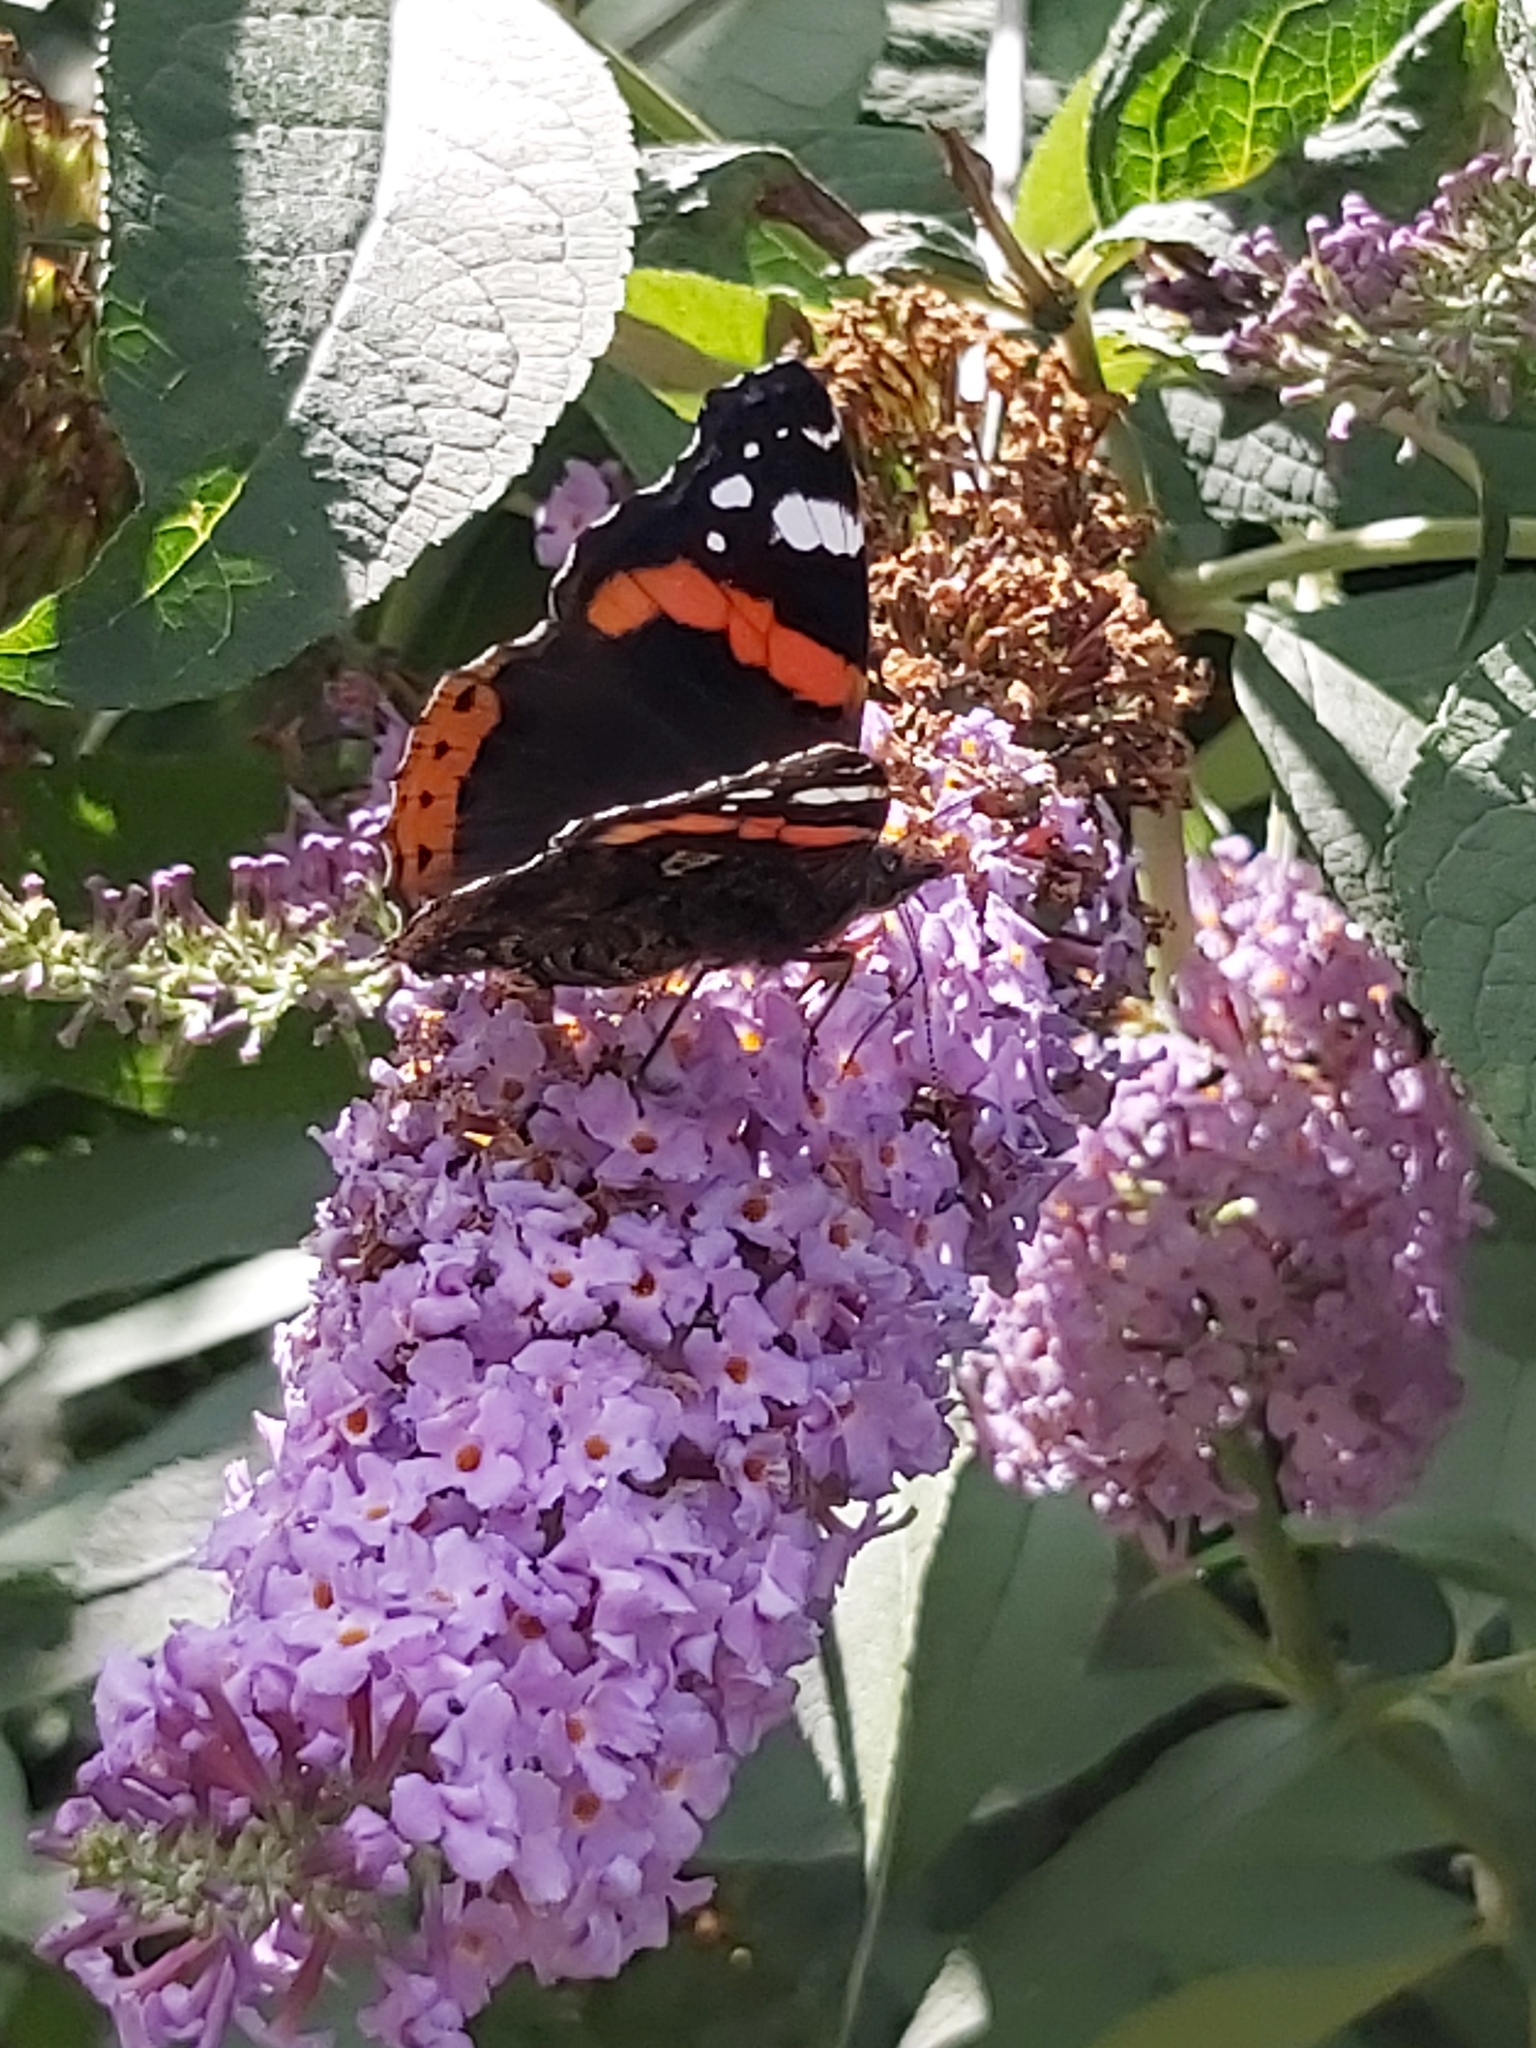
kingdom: Animalia
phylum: Arthropoda
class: Insecta
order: Lepidoptera
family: Nymphalidae
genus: Vanessa
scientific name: Vanessa atalanta
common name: Red admiral
